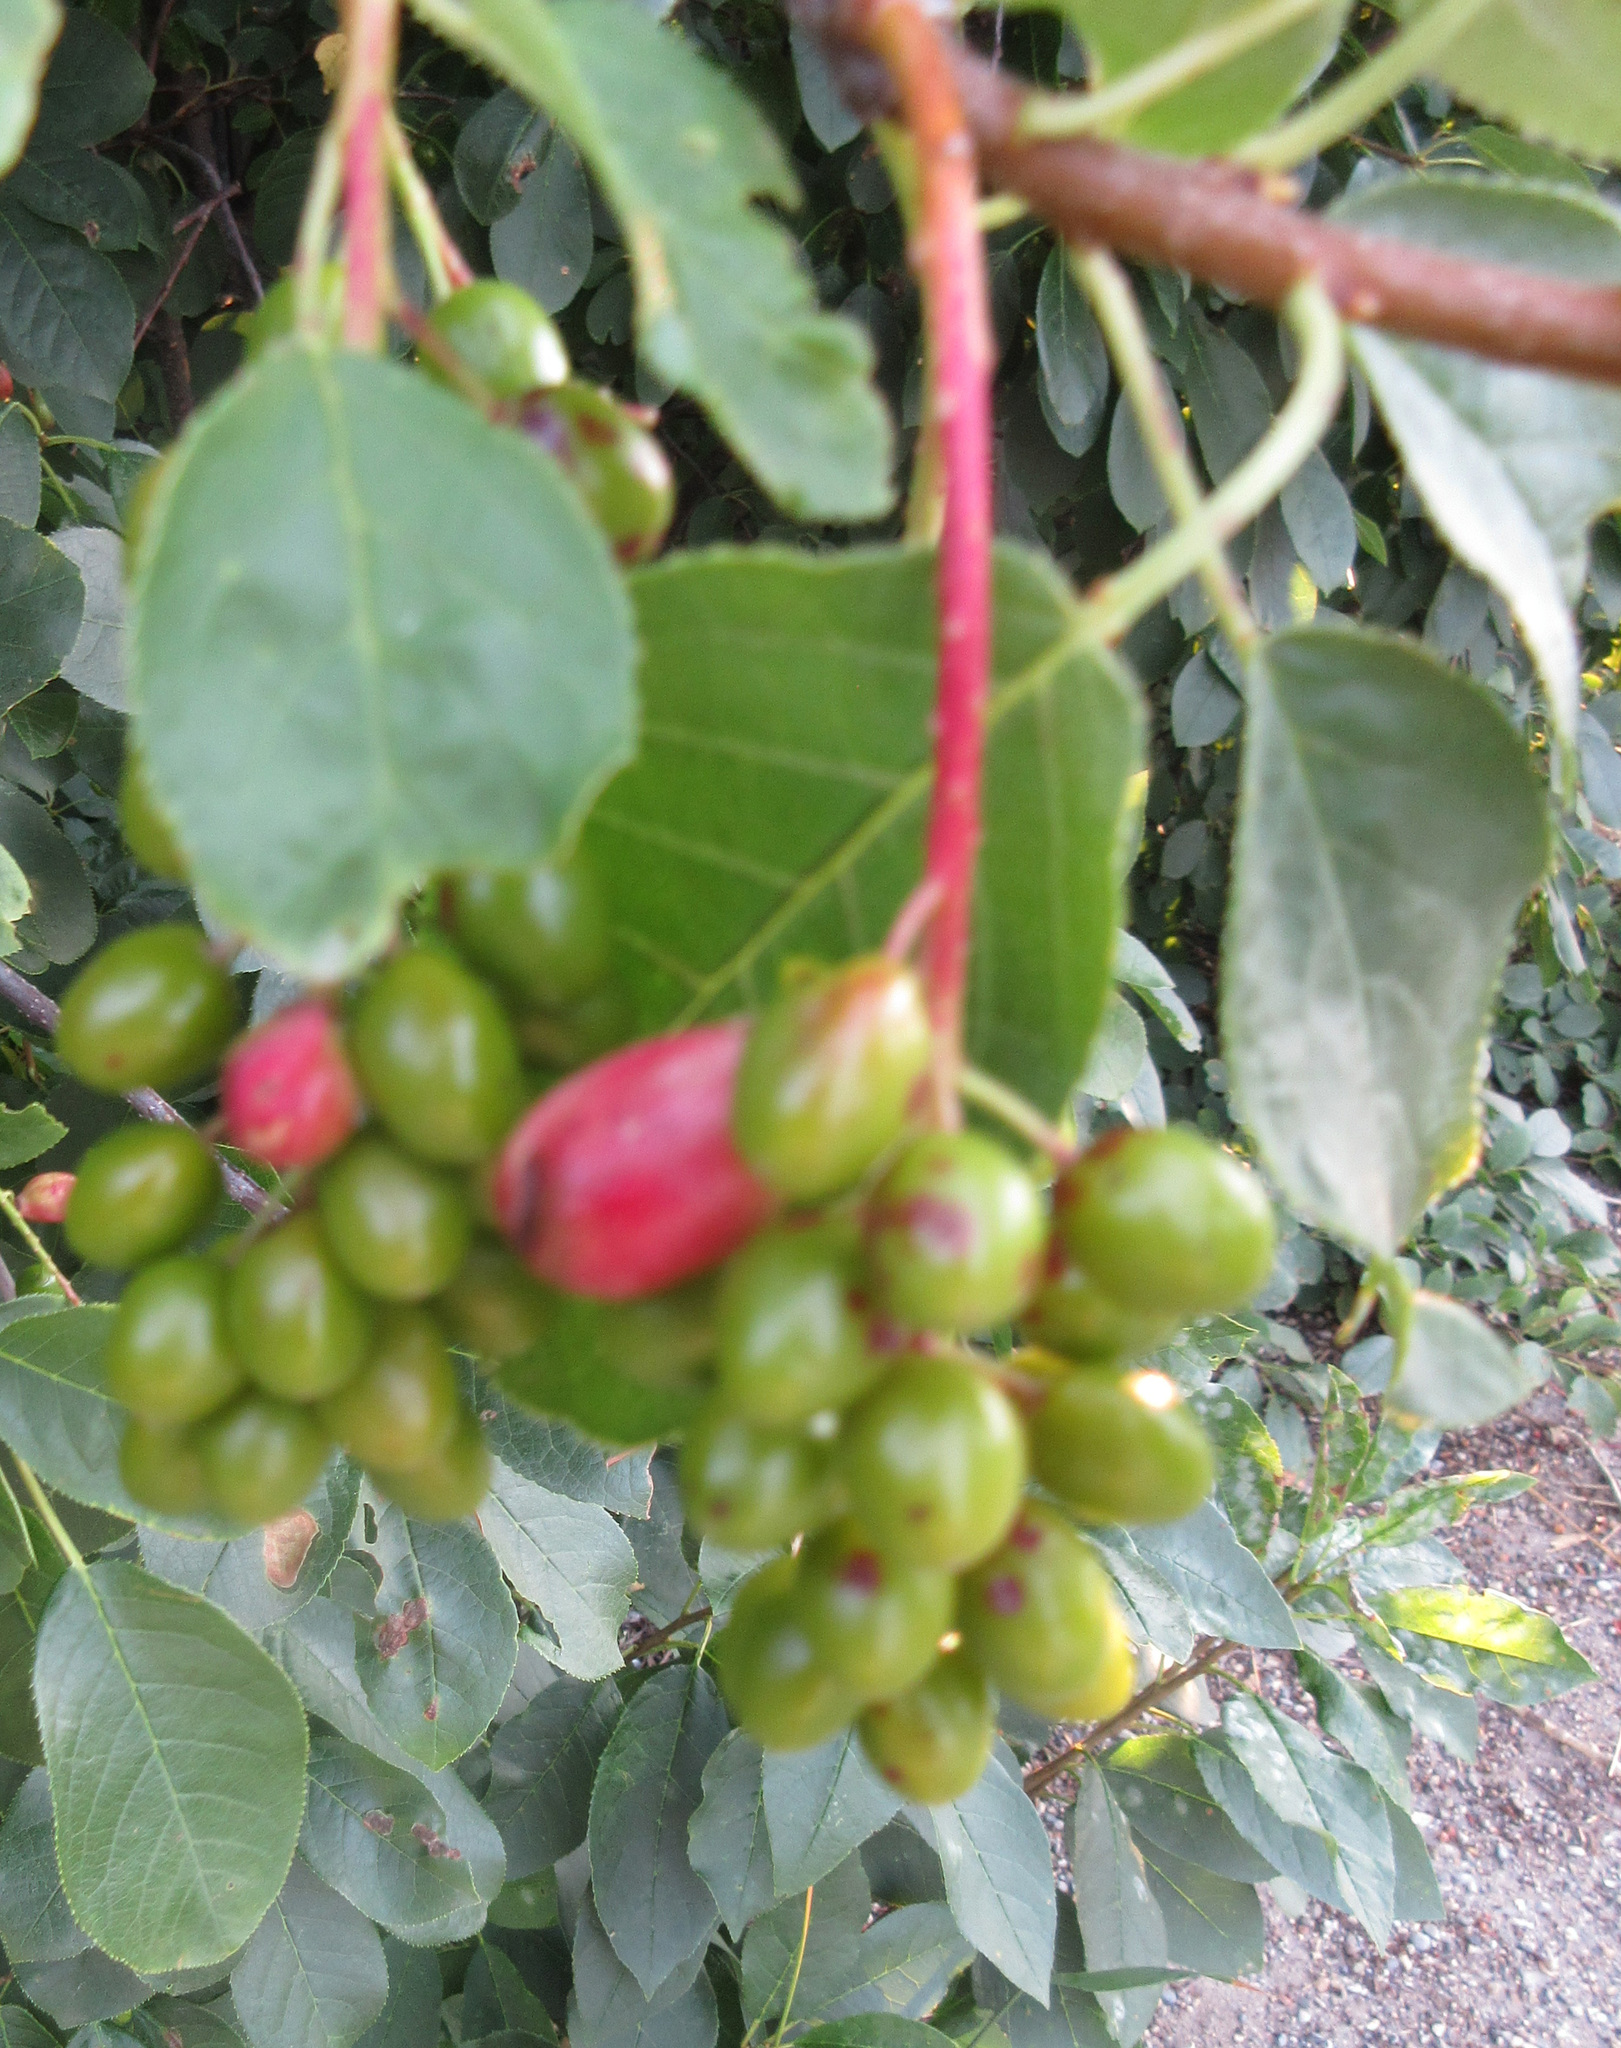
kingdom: Plantae
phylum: Tracheophyta
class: Magnoliopsida
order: Rosales
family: Rosaceae
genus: Prunus
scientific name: Prunus virginiana
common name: Chokecherry
